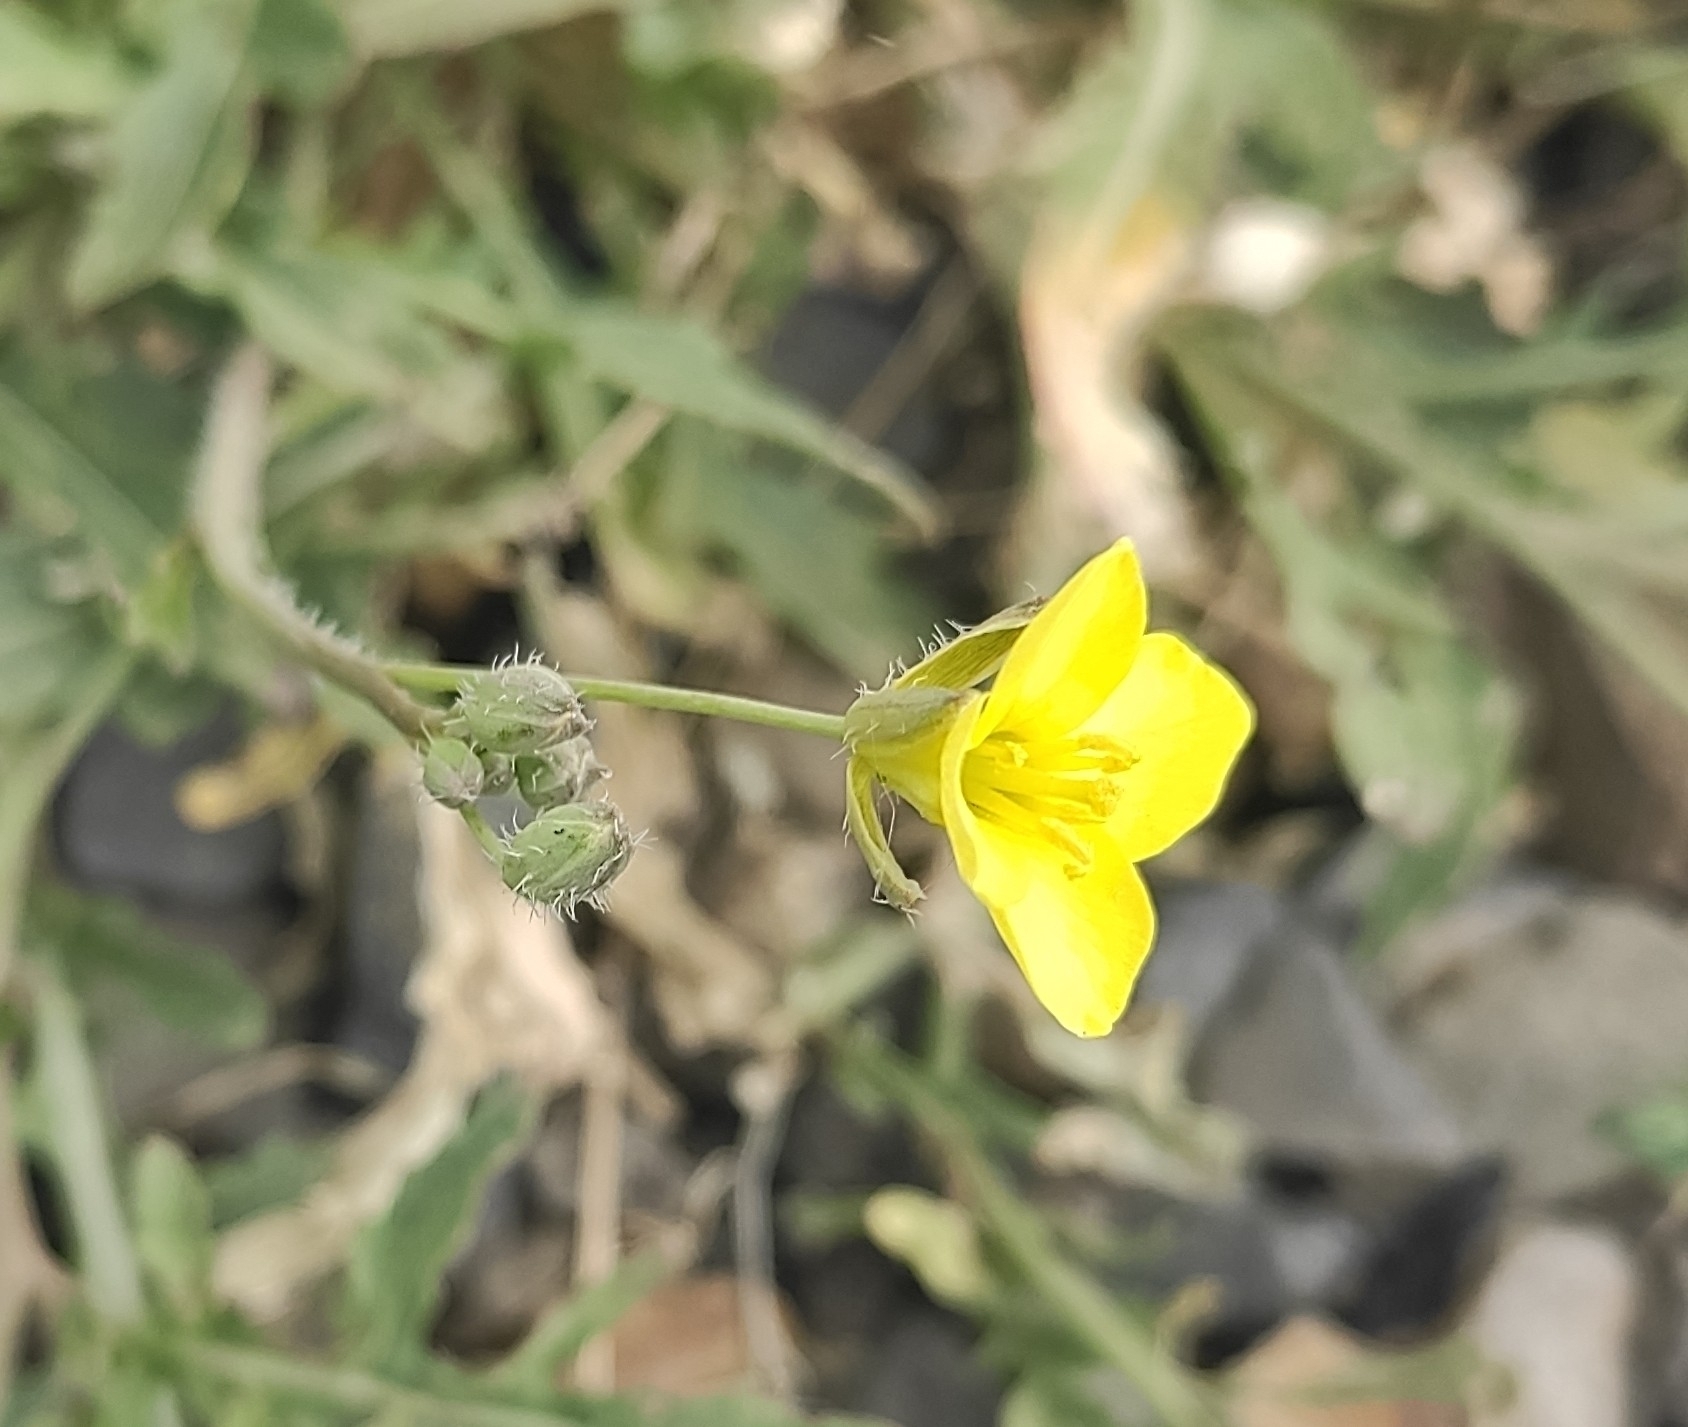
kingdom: Plantae
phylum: Tracheophyta
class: Magnoliopsida
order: Brassicales
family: Brassicaceae
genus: Diplotaxis
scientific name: Diplotaxis tenuifolia
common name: Perennial wall-rocket
